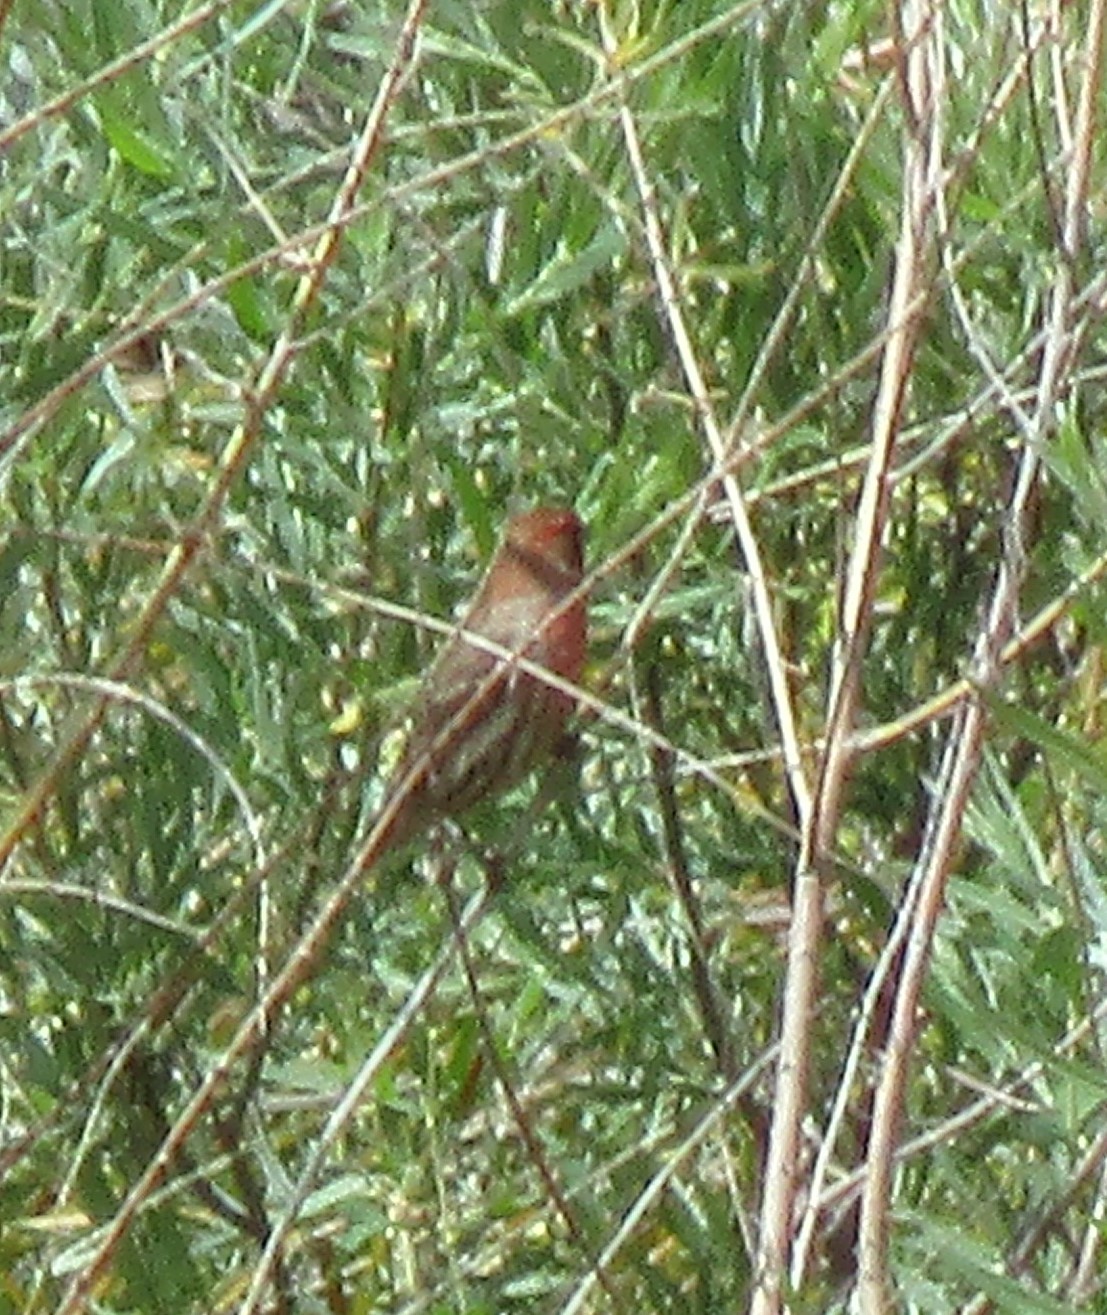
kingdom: Animalia
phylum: Chordata
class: Aves
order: Passeriformes
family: Fringillidae
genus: Haemorhous
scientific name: Haemorhous mexicanus
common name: House finch
